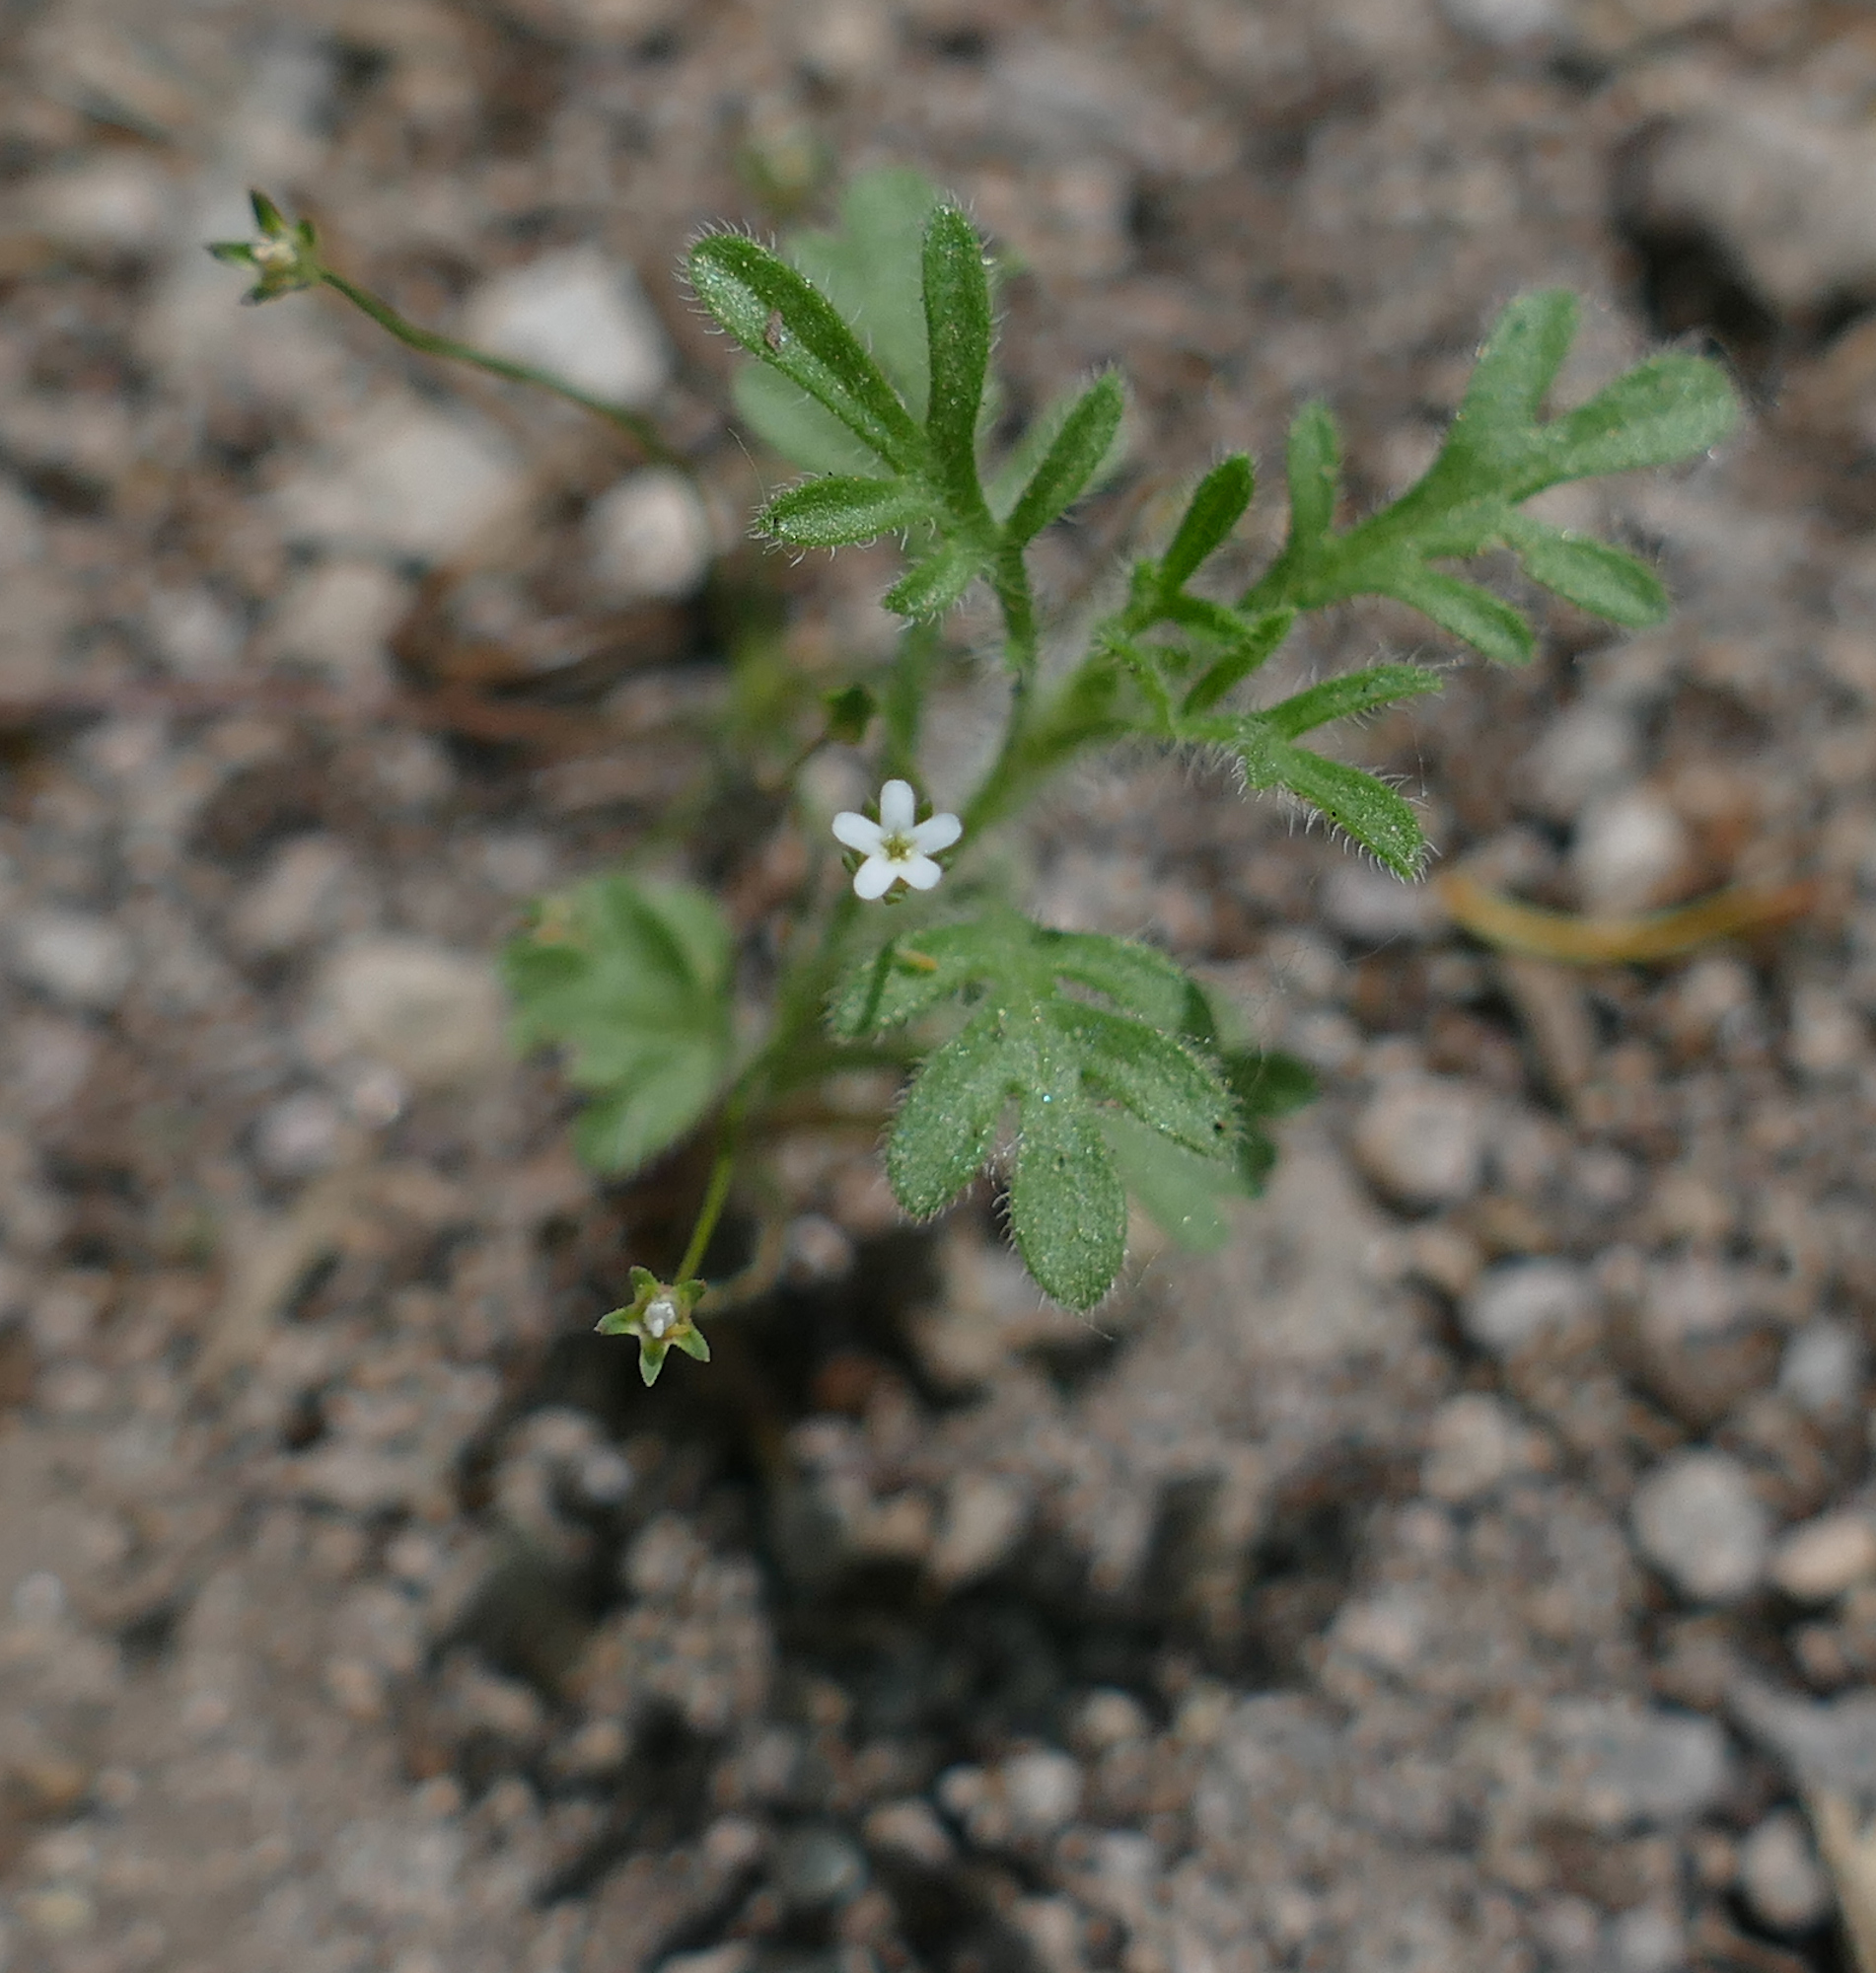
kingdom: Plantae
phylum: Tracheophyta
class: Magnoliopsida
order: Ericales
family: Primulaceae
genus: Androsace
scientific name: Androsace septentrionalis
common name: Hairy northern fairy-candelabra
